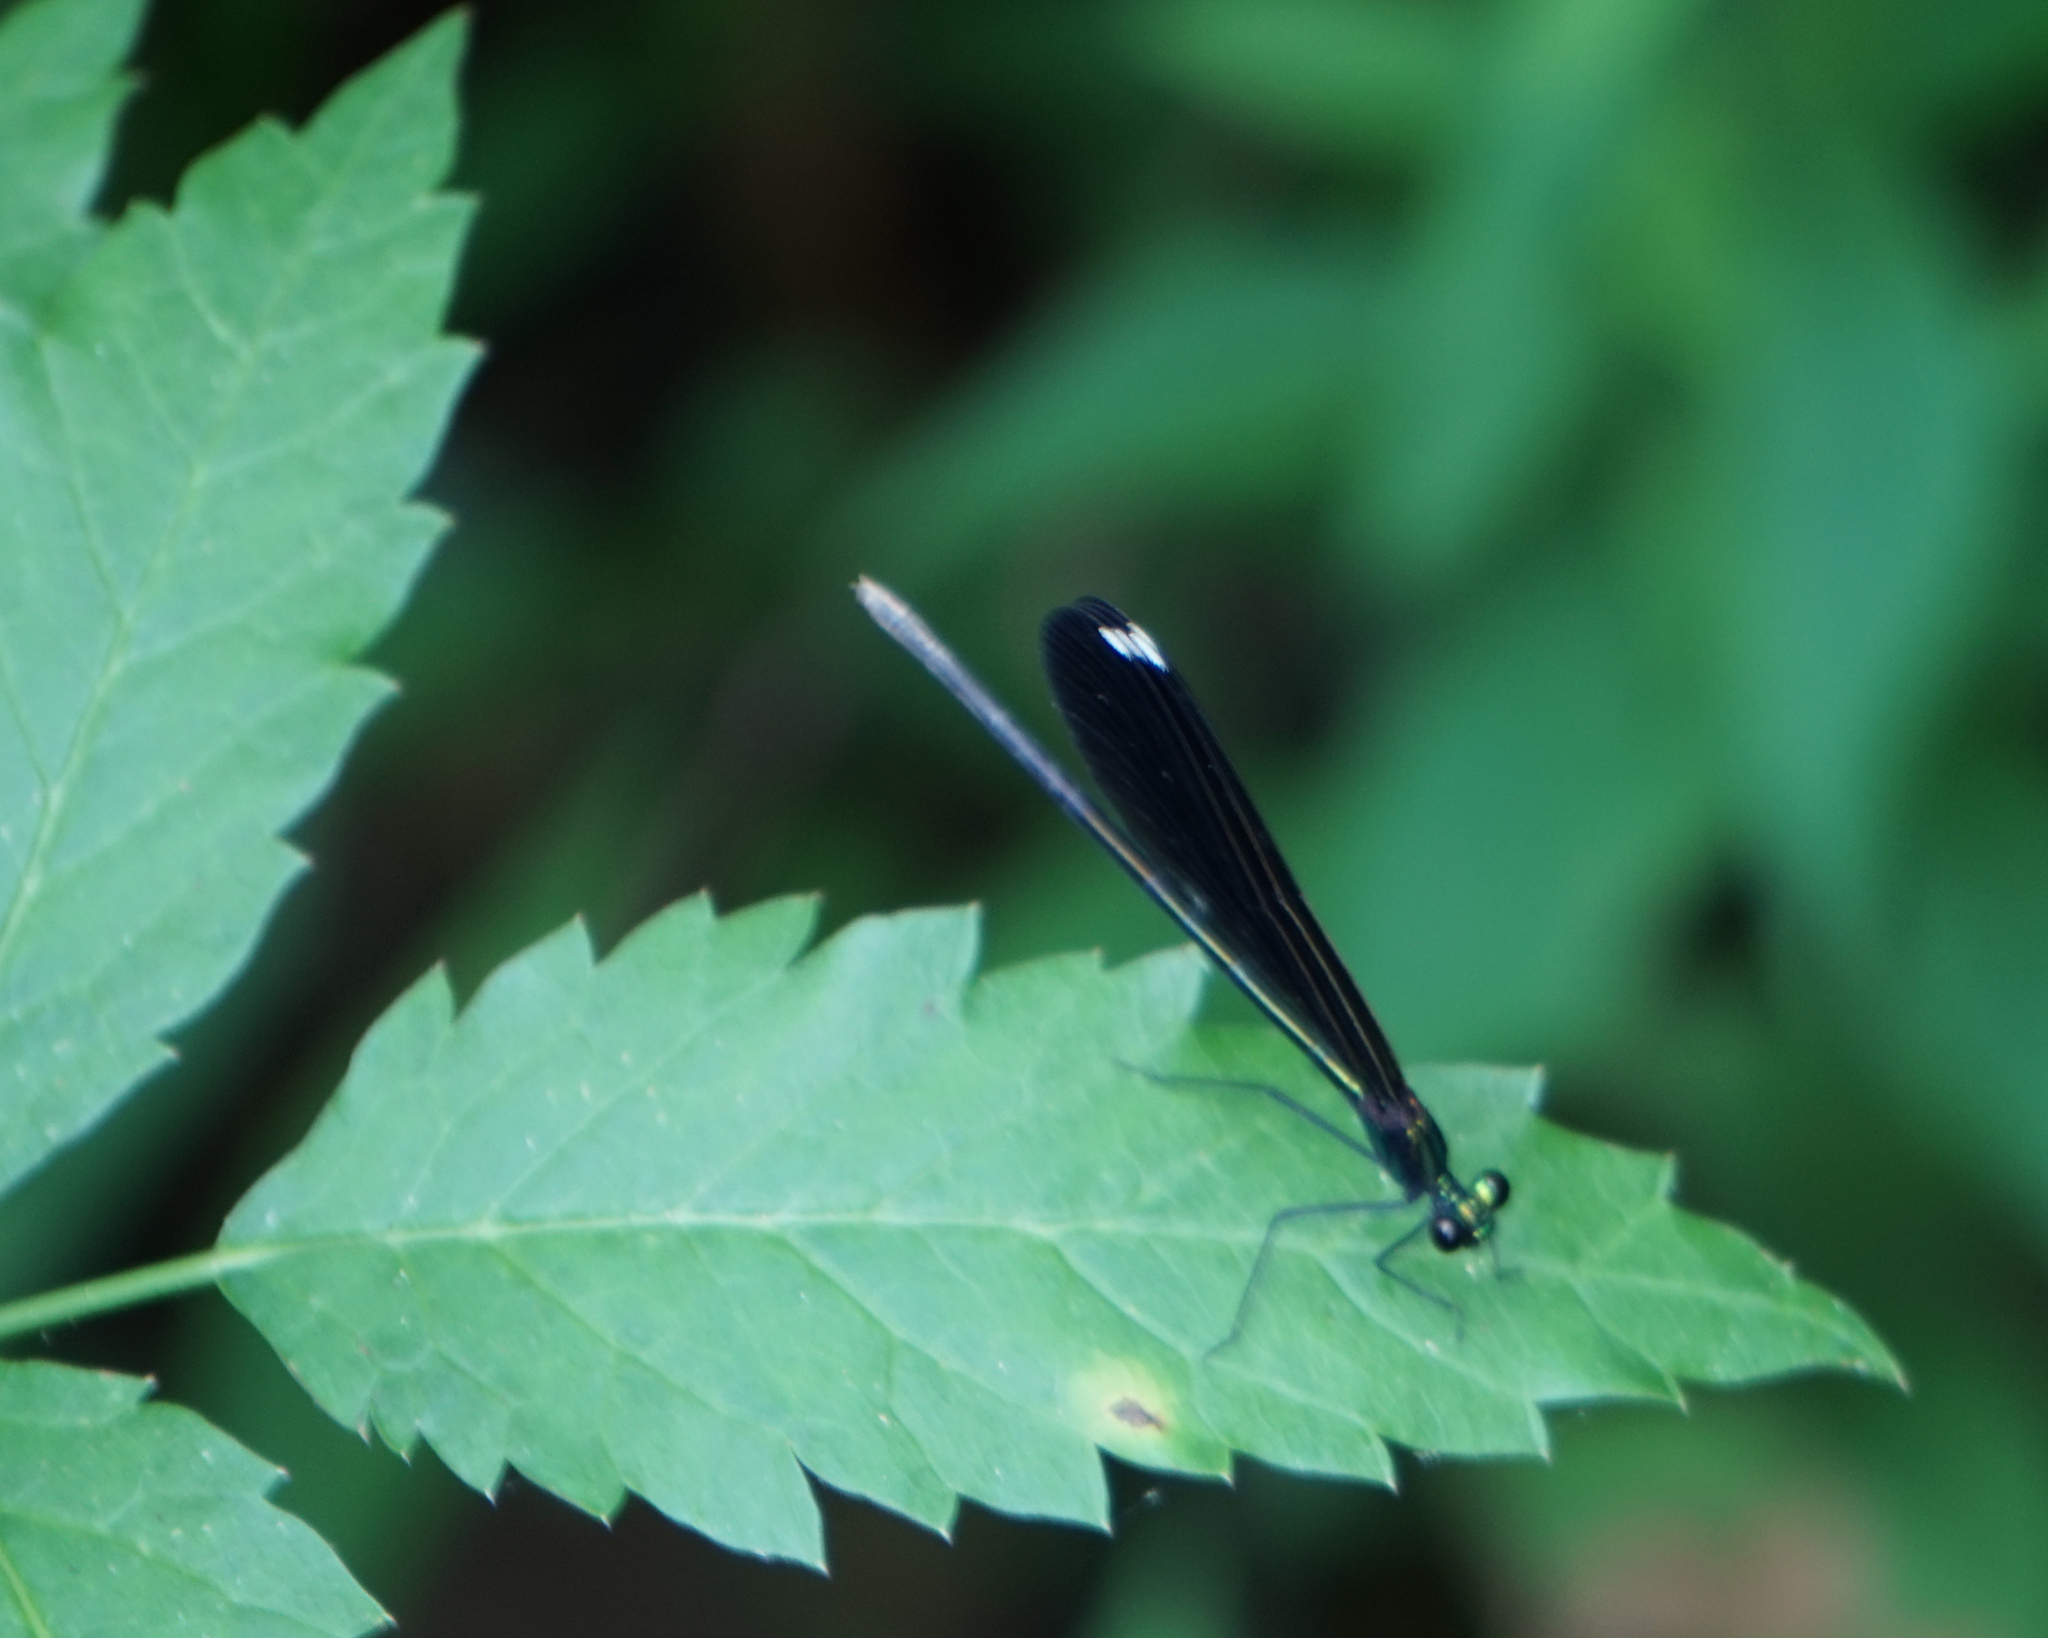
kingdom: Animalia
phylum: Arthropoda
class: Insecta
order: Odonata
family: Calopterygidae
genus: Calopteryx
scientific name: Calopteryx maculata
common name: Ebony jewelwing
